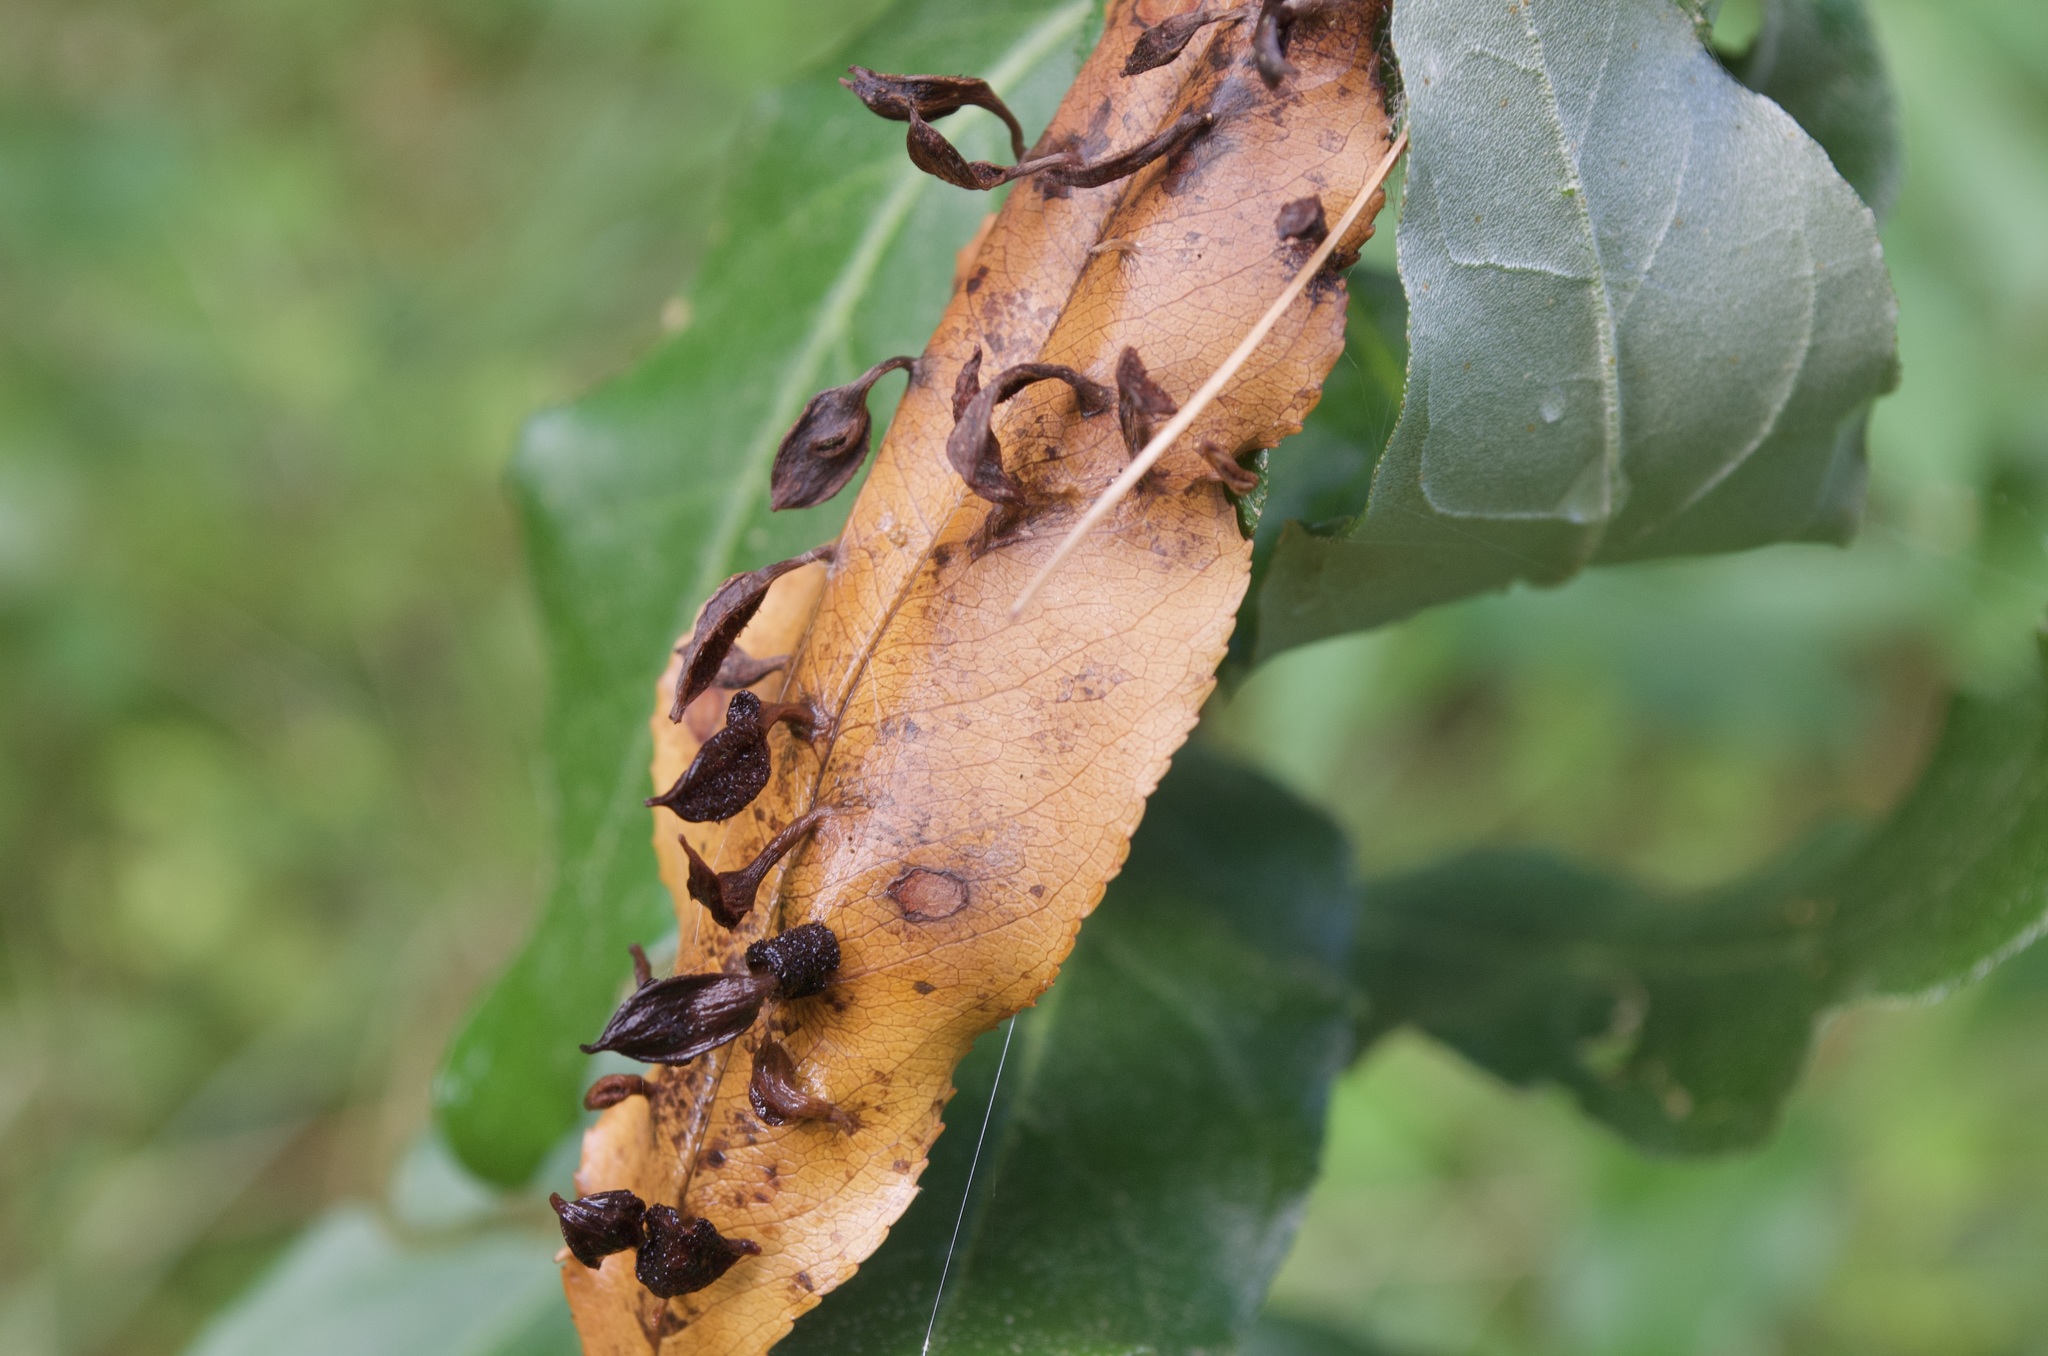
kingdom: Animalia
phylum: Arthropoda
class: Arachnida
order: Trombidiformes
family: Eriophyidae
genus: Eriophyes
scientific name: Eriophyes
